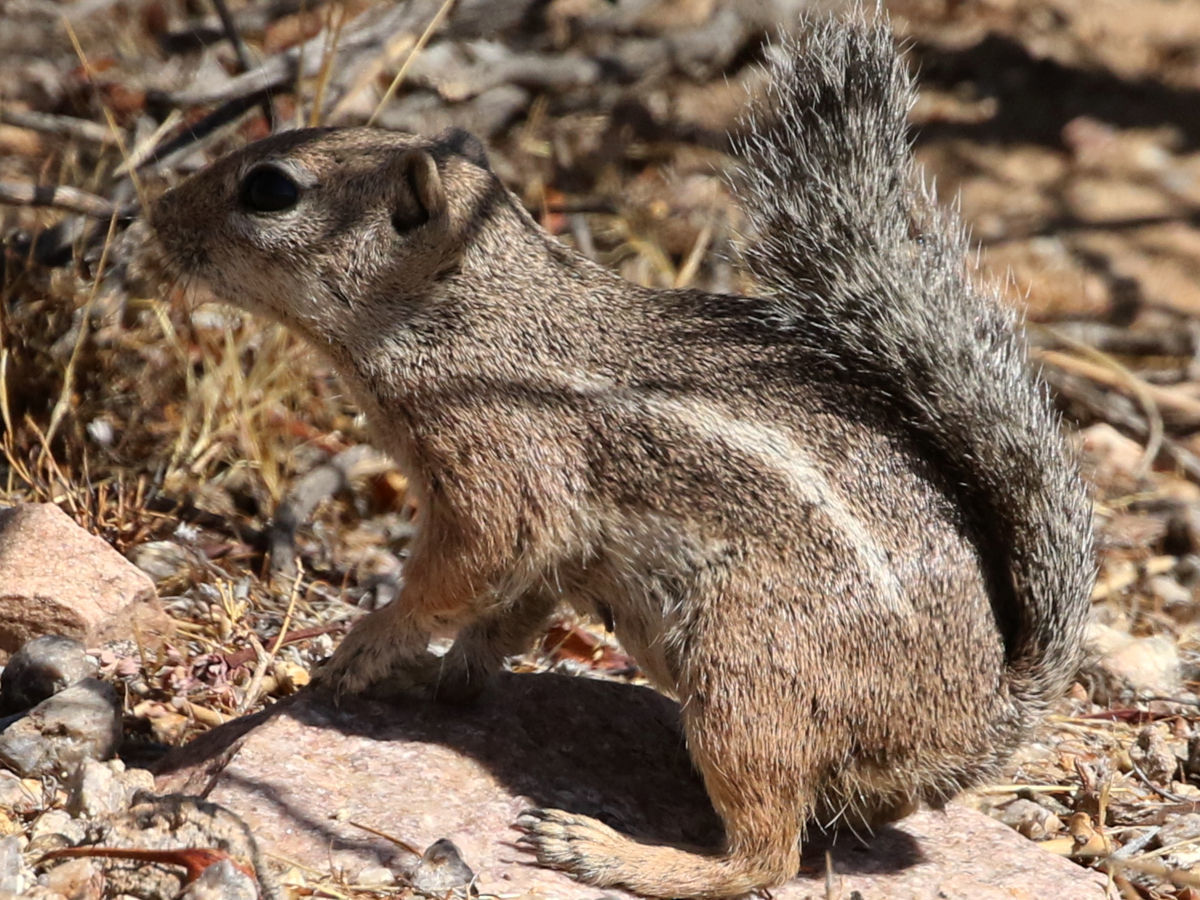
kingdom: Animalia
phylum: Chordata
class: Mammalia
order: Rodentia
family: Sciuridae
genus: Ammospermophilus
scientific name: Ammospermophilus harrisii
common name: Harris's antelope squirrel
